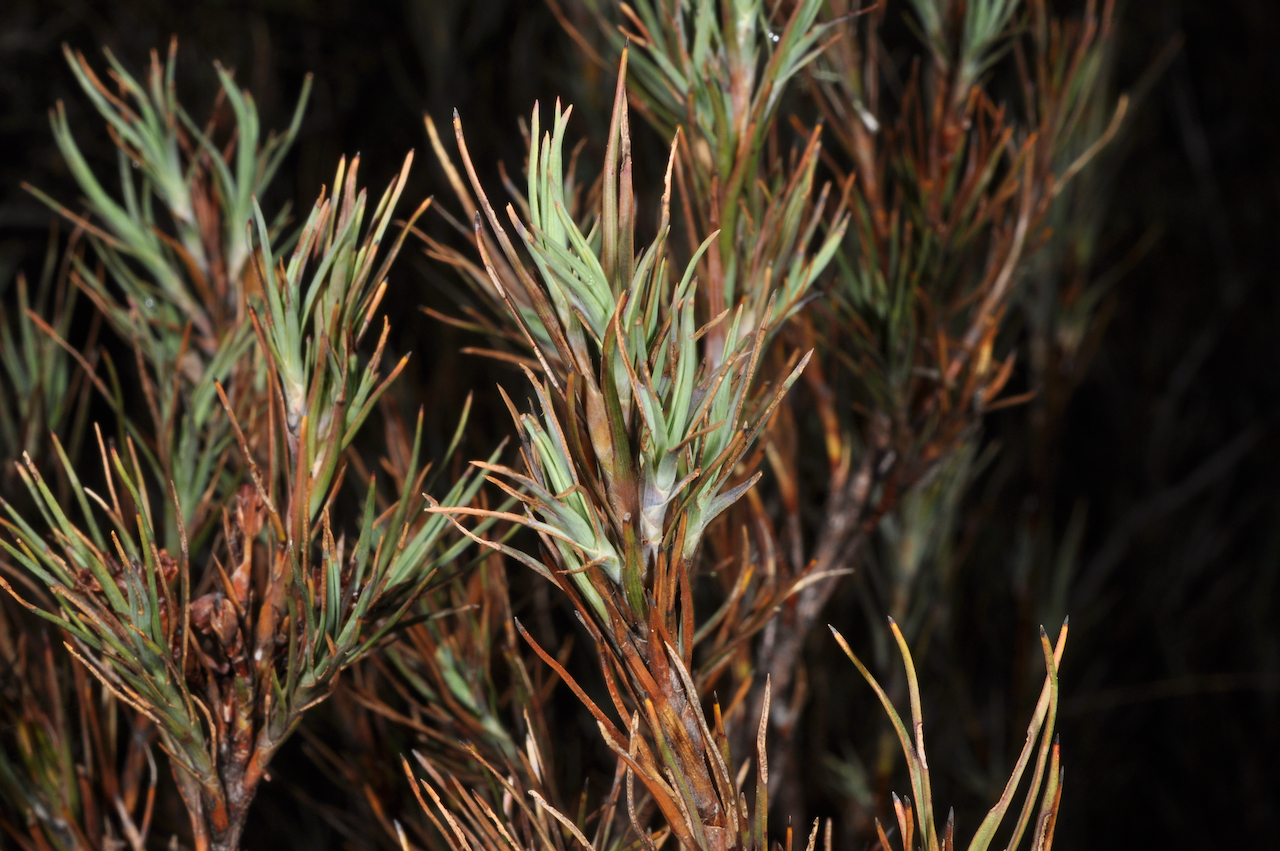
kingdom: Plantae
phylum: Tracheophyta
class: Magnoliopsida
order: Ericales
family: Ericaceae
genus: Dracophyllum
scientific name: Dracophyllum oliveri
